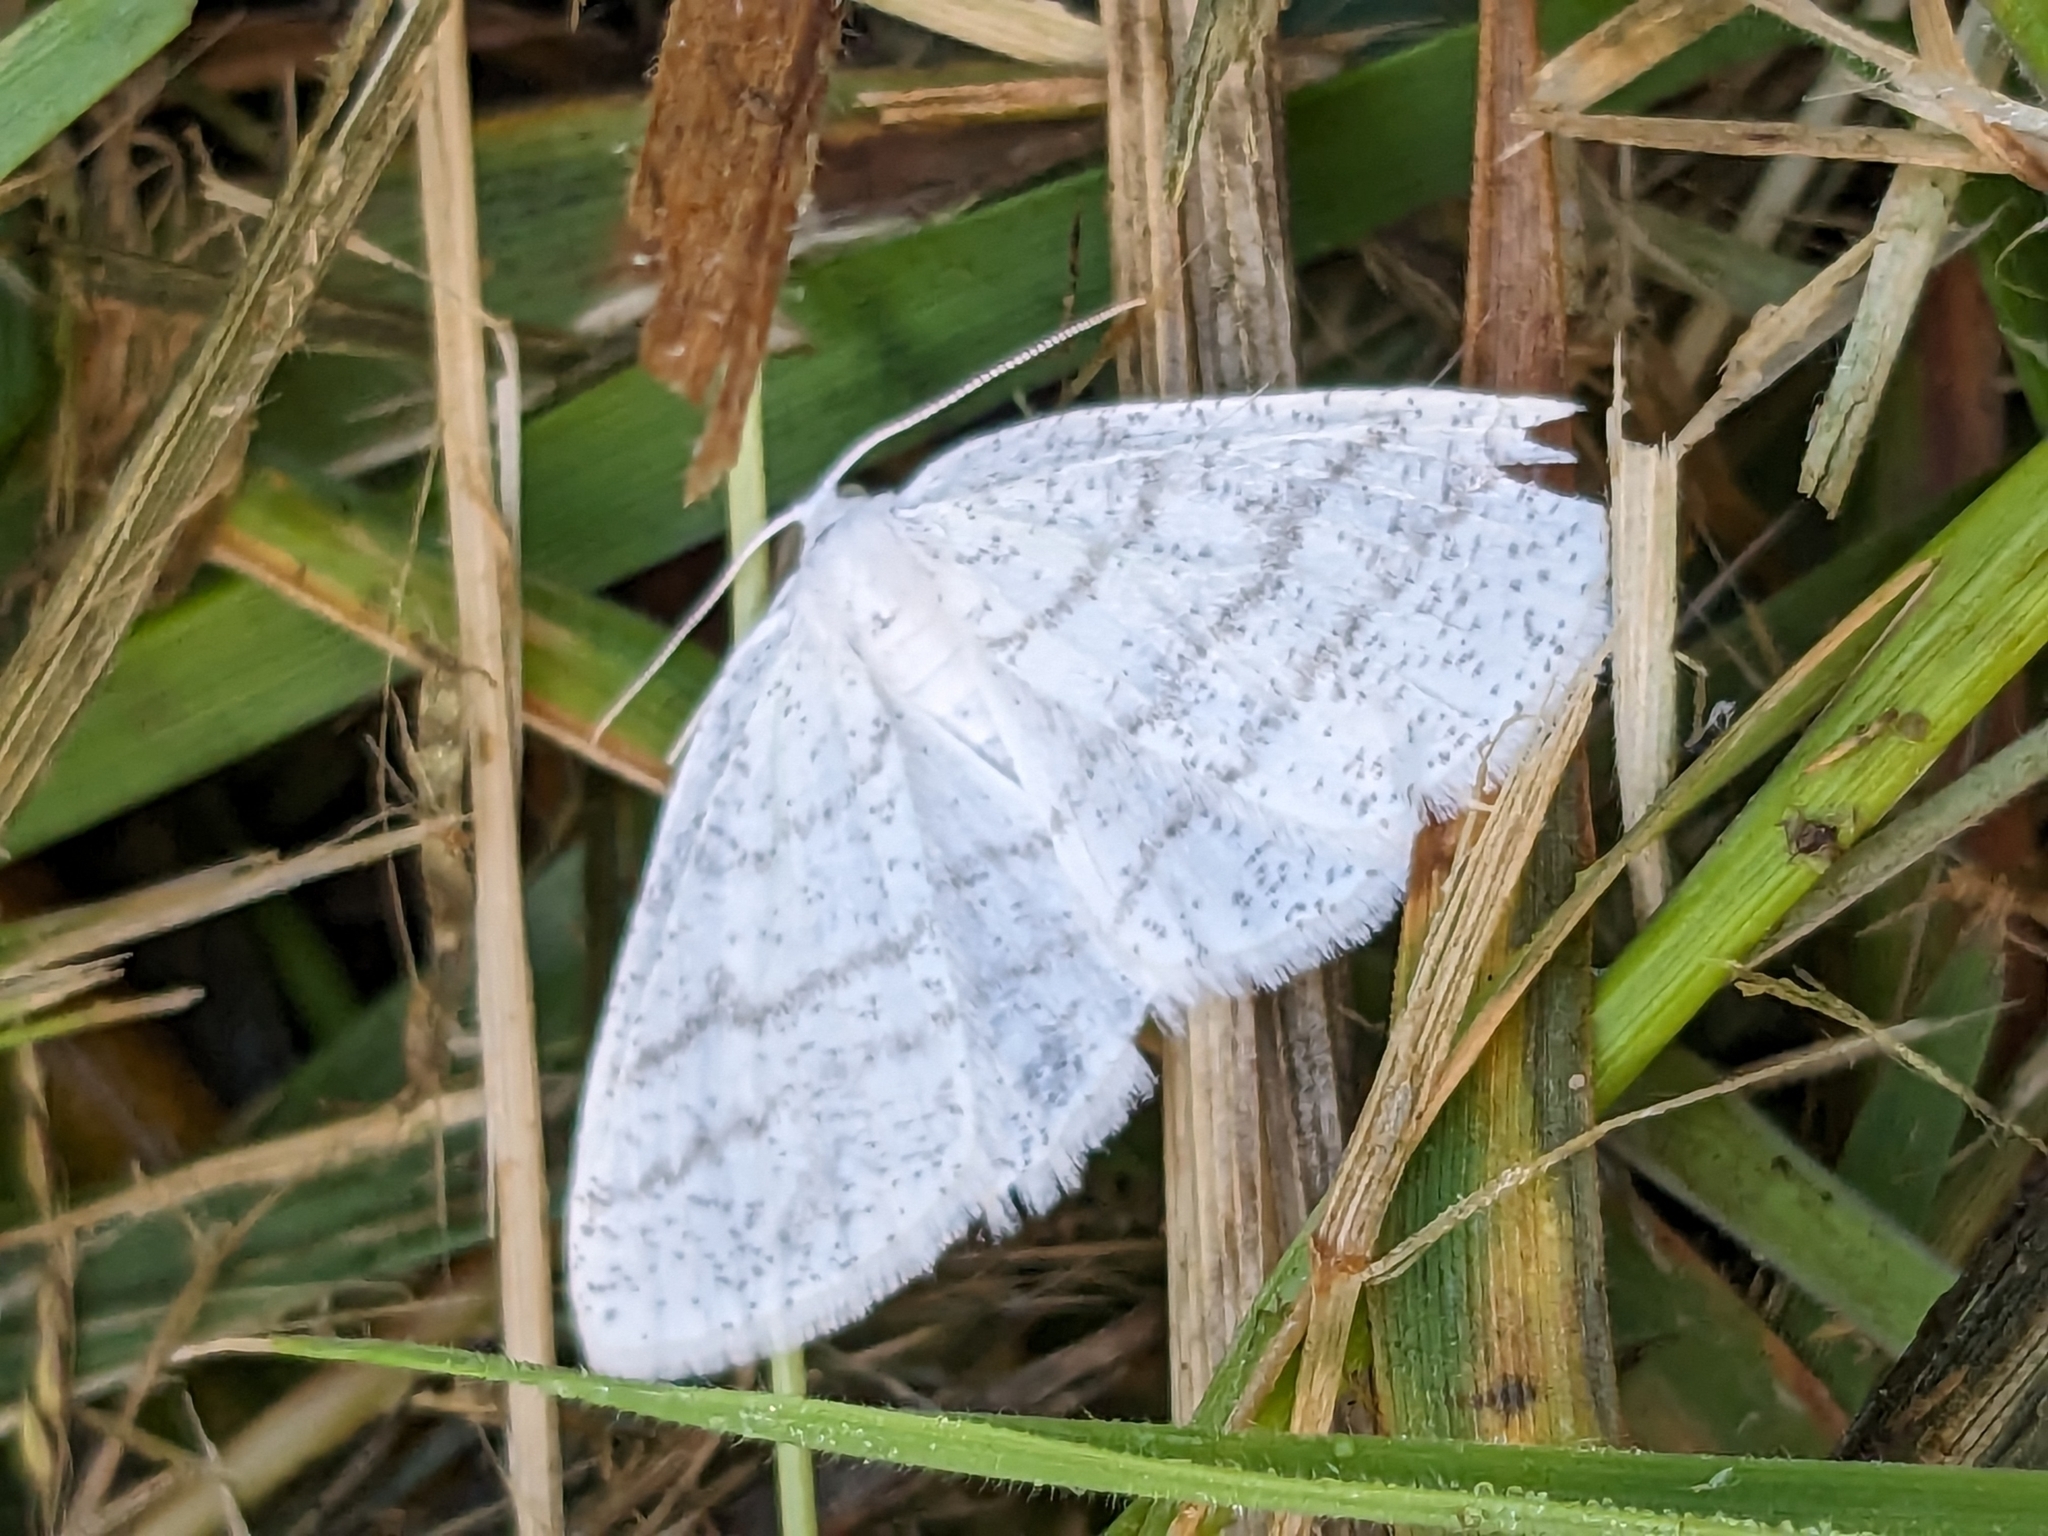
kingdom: Animalia
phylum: Arthropoda
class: Insecta
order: Lepidoptera
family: Geometridae
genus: Cabera
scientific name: Cabera pusaria
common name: Common white wave
